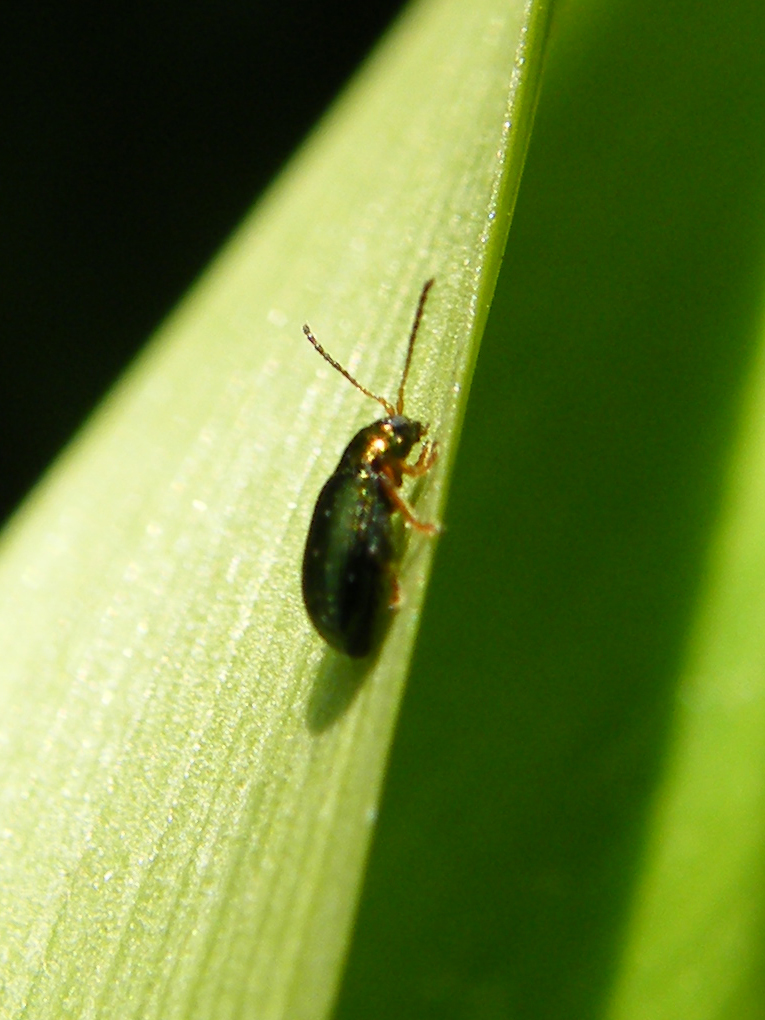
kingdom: Animalia
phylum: Arthropoda
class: Insecta
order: Coleoptera
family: Chrysomelidae
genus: Crepidodera
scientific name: Crepidodera aurata
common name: Willow flea beetle
